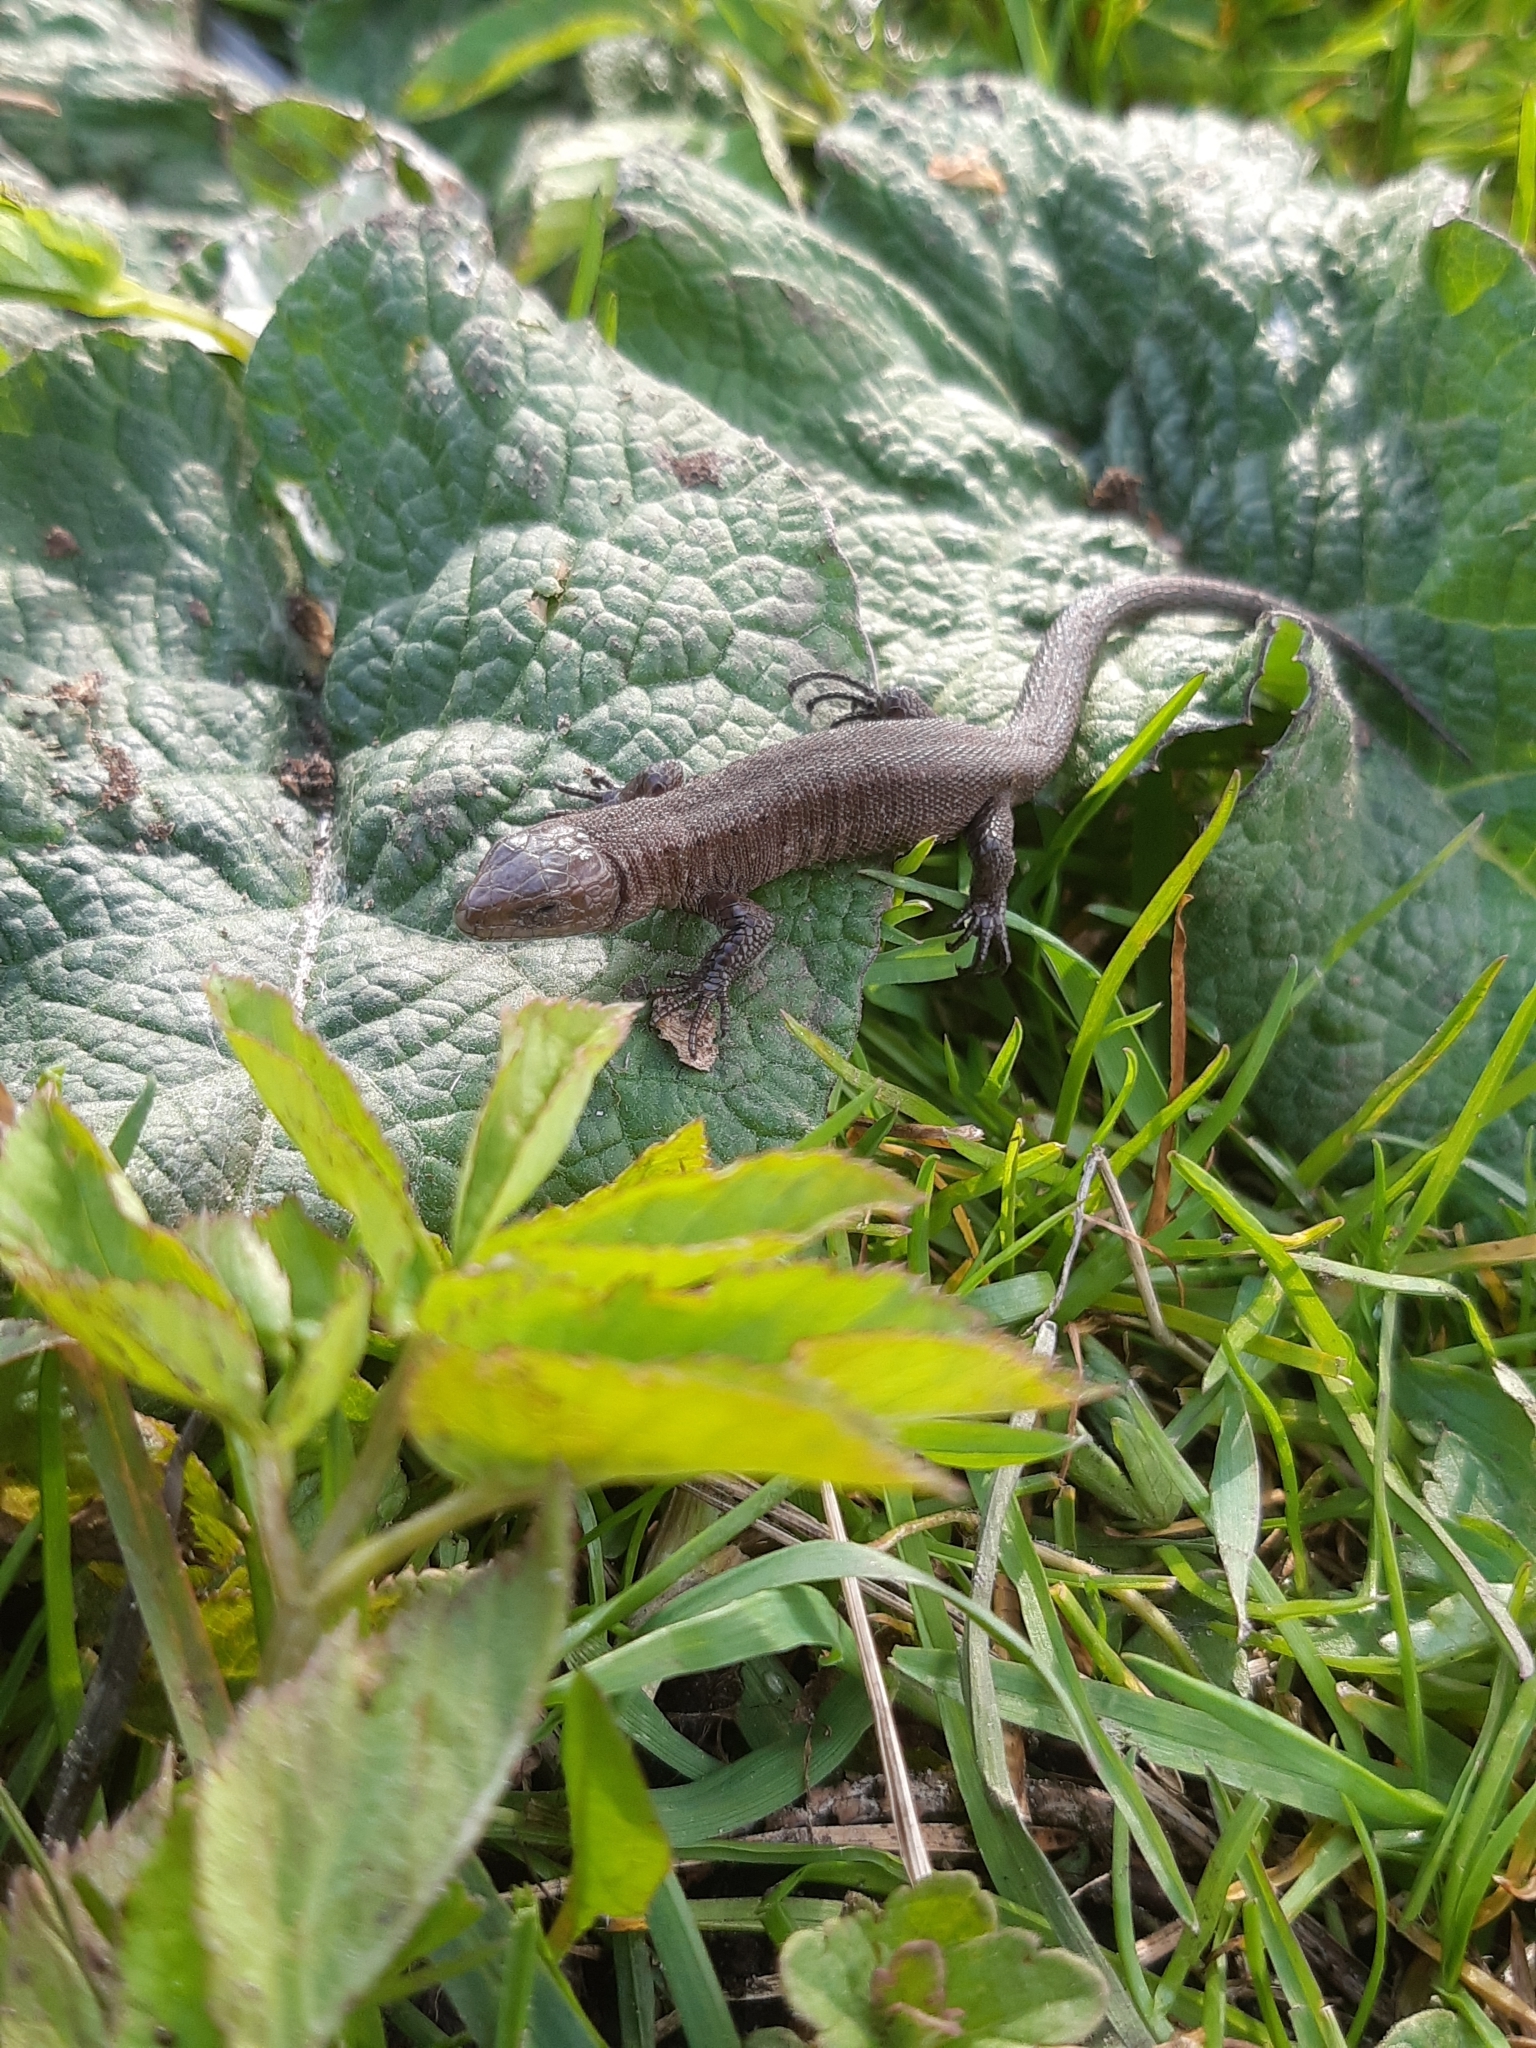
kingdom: Animalia
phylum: Chordata
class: Squamata
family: Lacertidae
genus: Zootoca
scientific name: Zootoca vivipara
